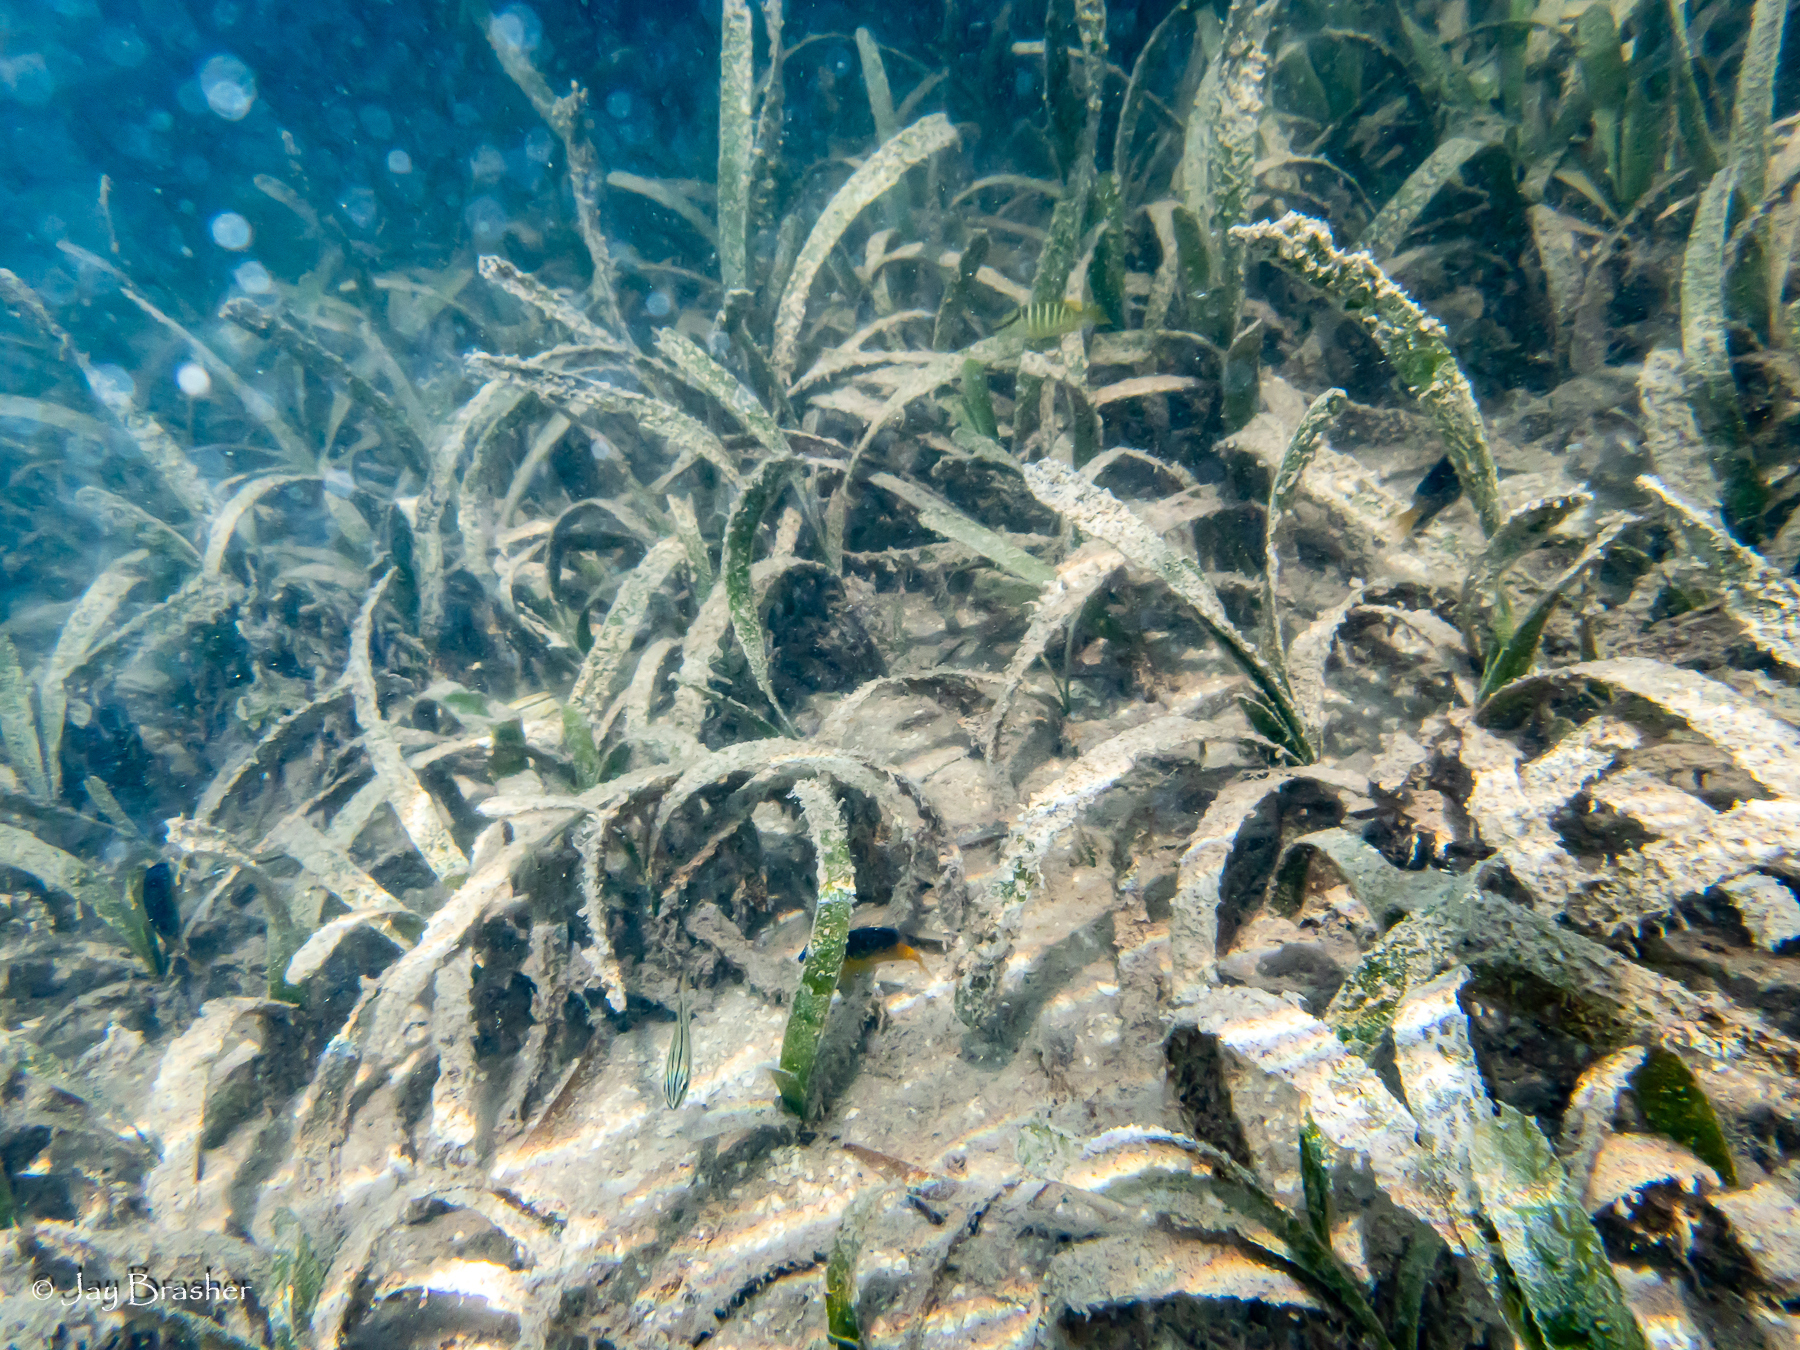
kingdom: Plantae
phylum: Tracheophyta
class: Liliopsida
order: Alismatales
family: Hydrocharitaceae
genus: Thalassia
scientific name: Thalassia testudinum
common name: Species code: tt
